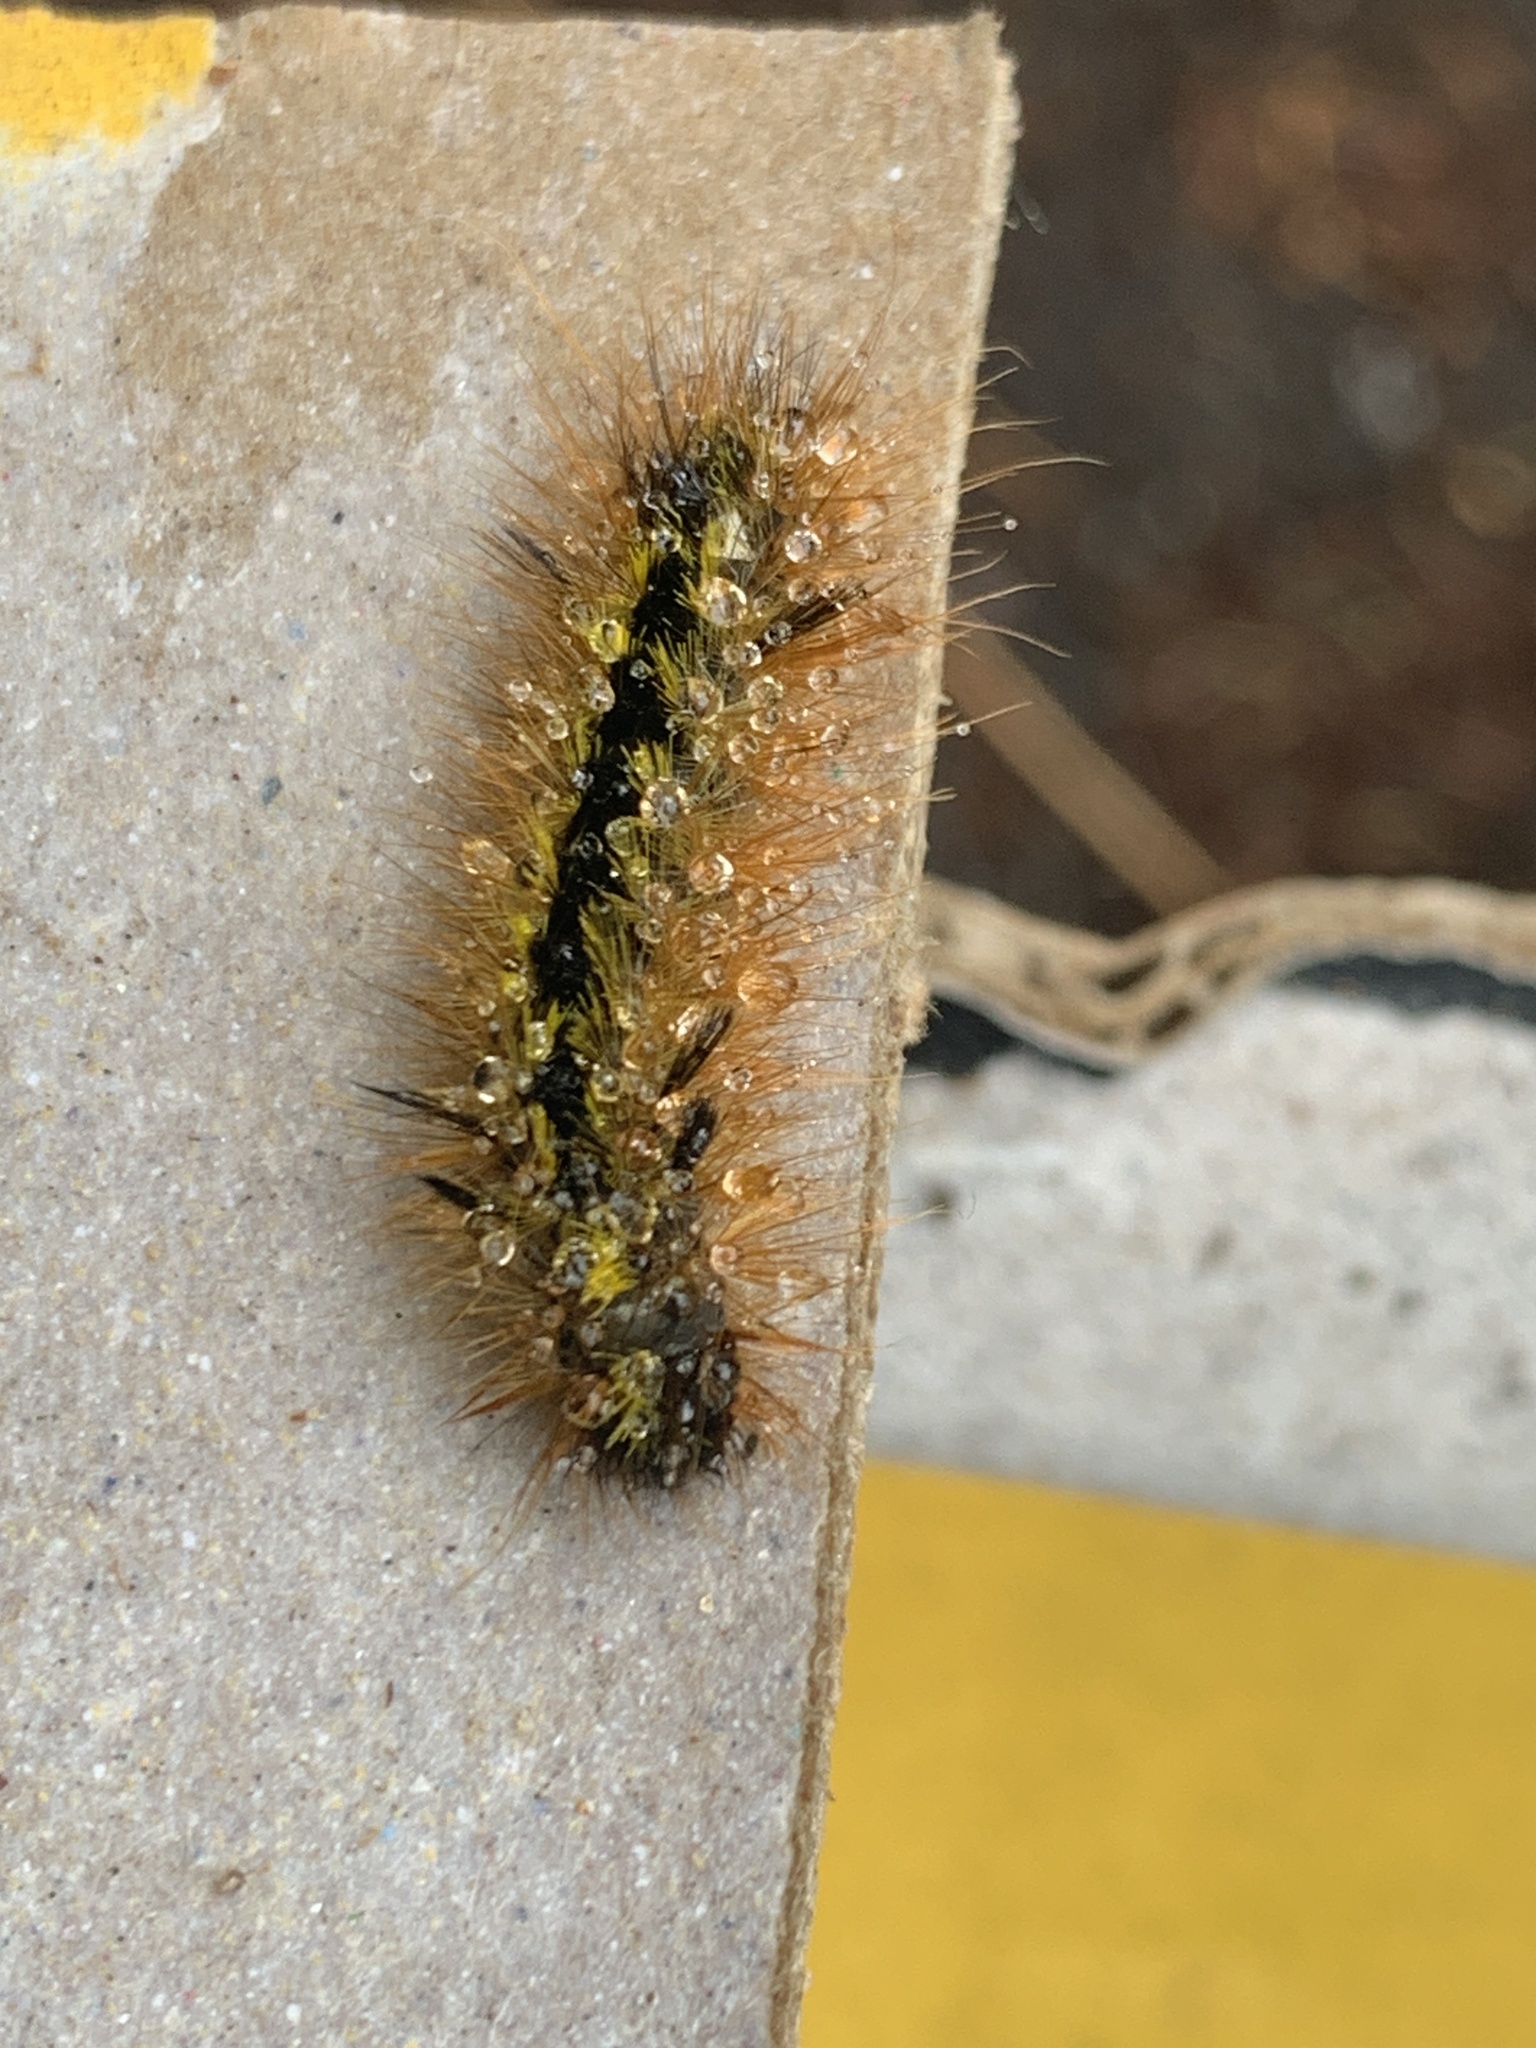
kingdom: Animalia
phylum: Arthropoda
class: Insecta
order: Lepidoptera
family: Erebidae
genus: Lophocampa
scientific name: Lophocampa argentata
